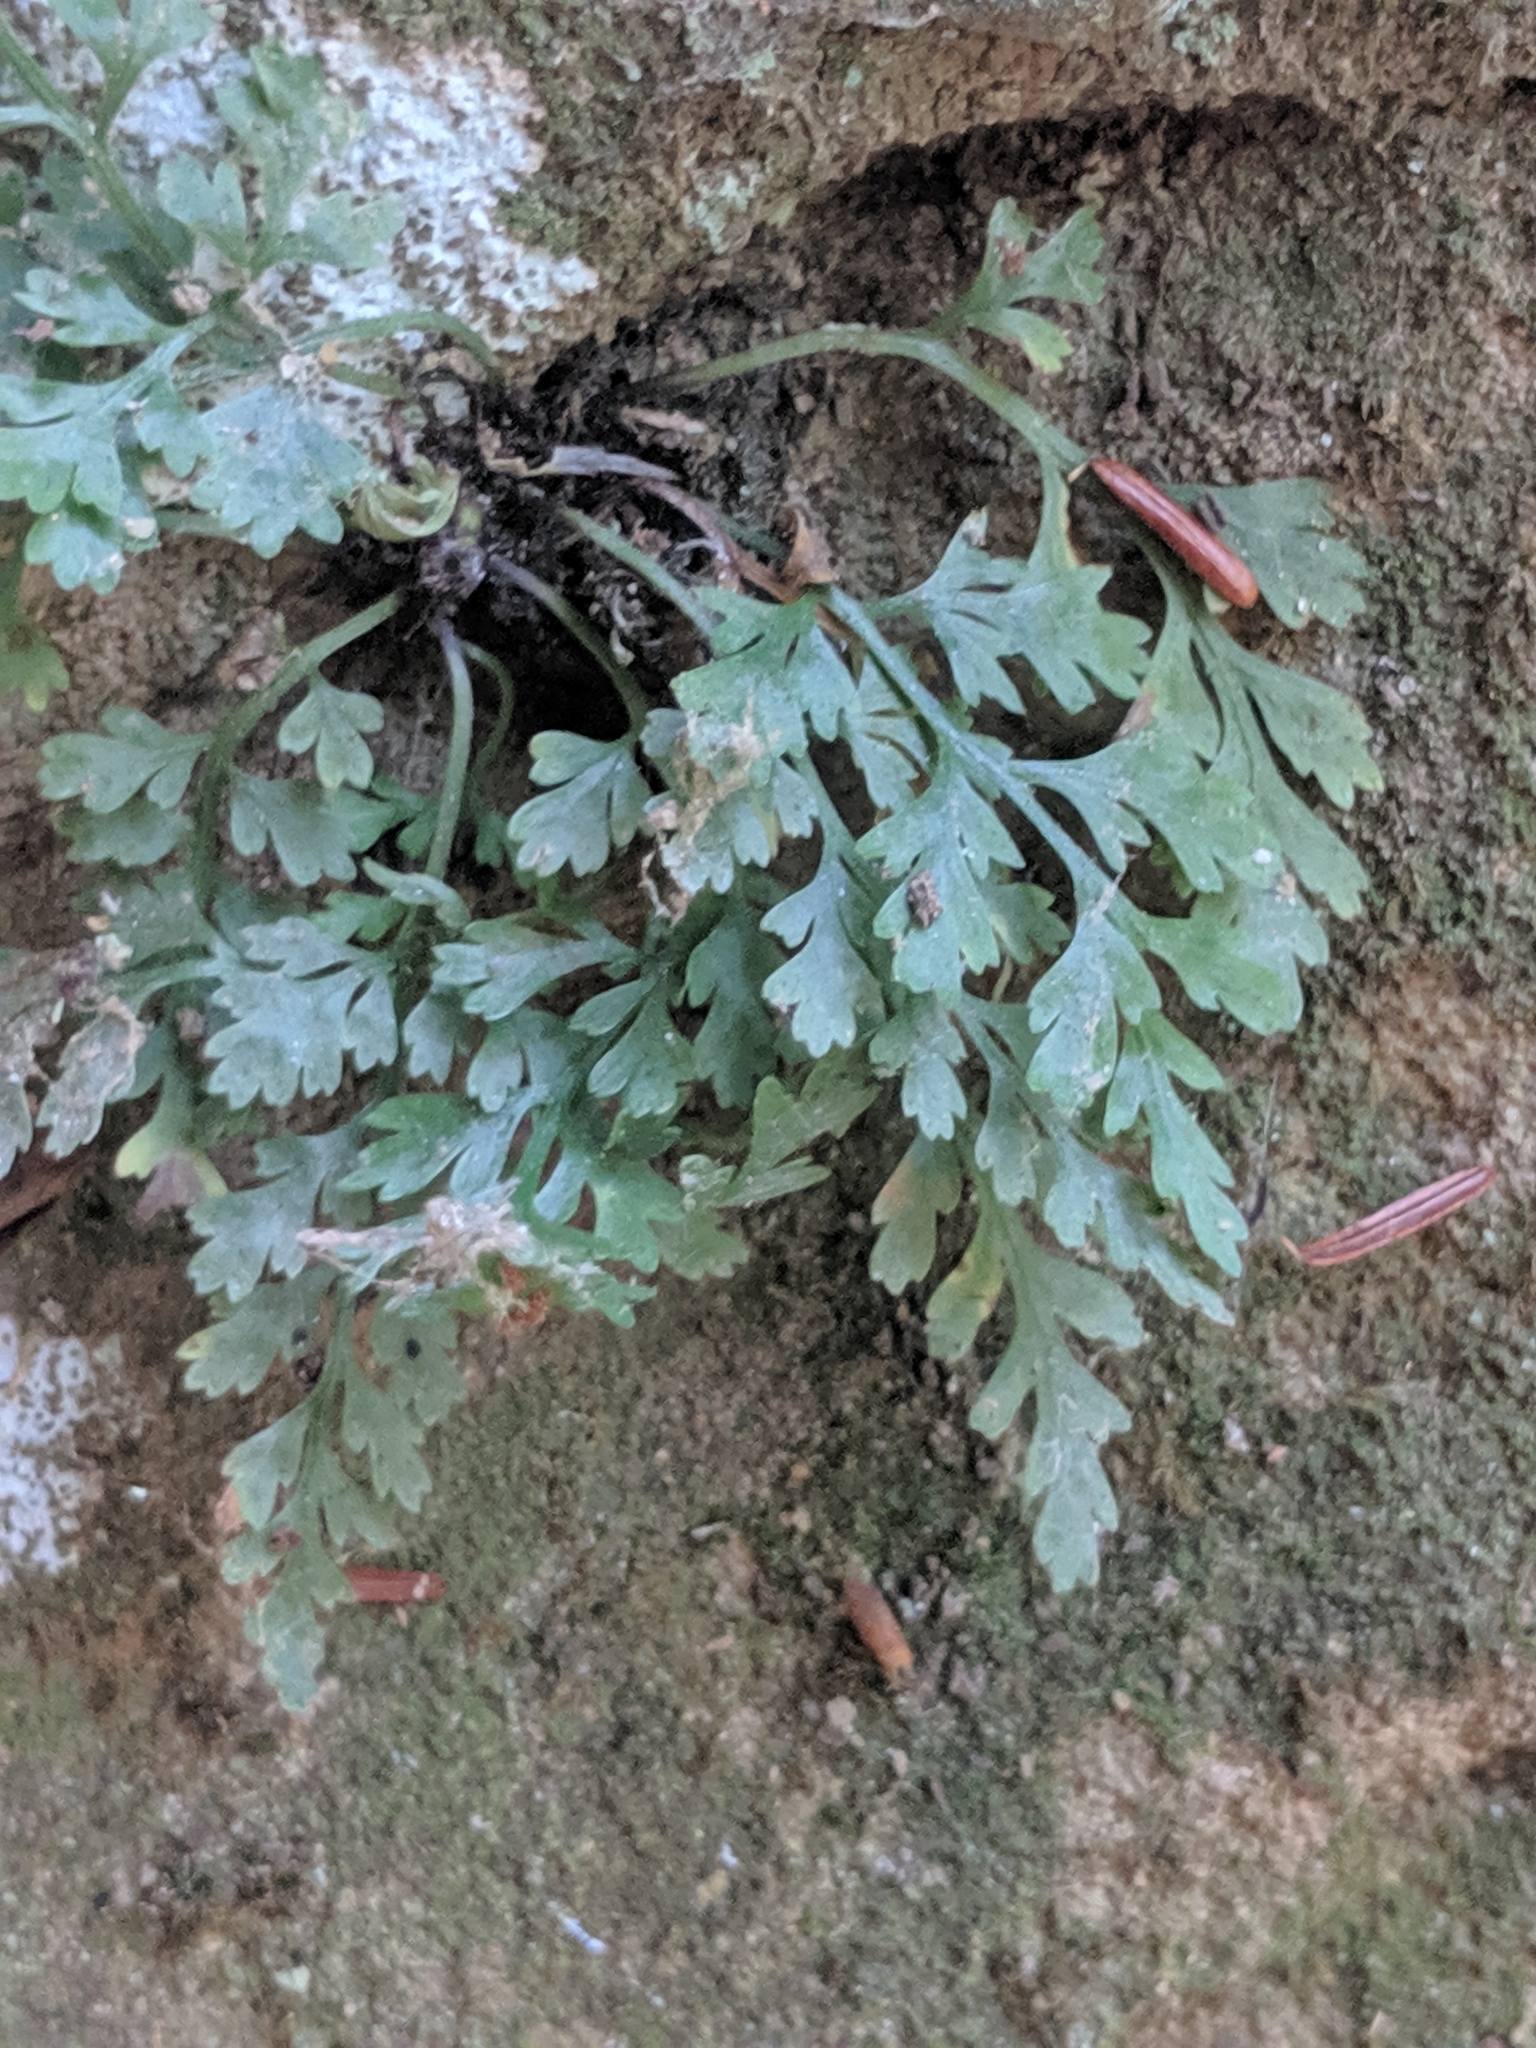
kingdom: Plantae
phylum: Tracheophyta
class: Polypodiopsida
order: Polypodiales
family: Aspleniaceae
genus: Asplenium
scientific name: Asplenium montanum
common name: Mountain spleenwort
